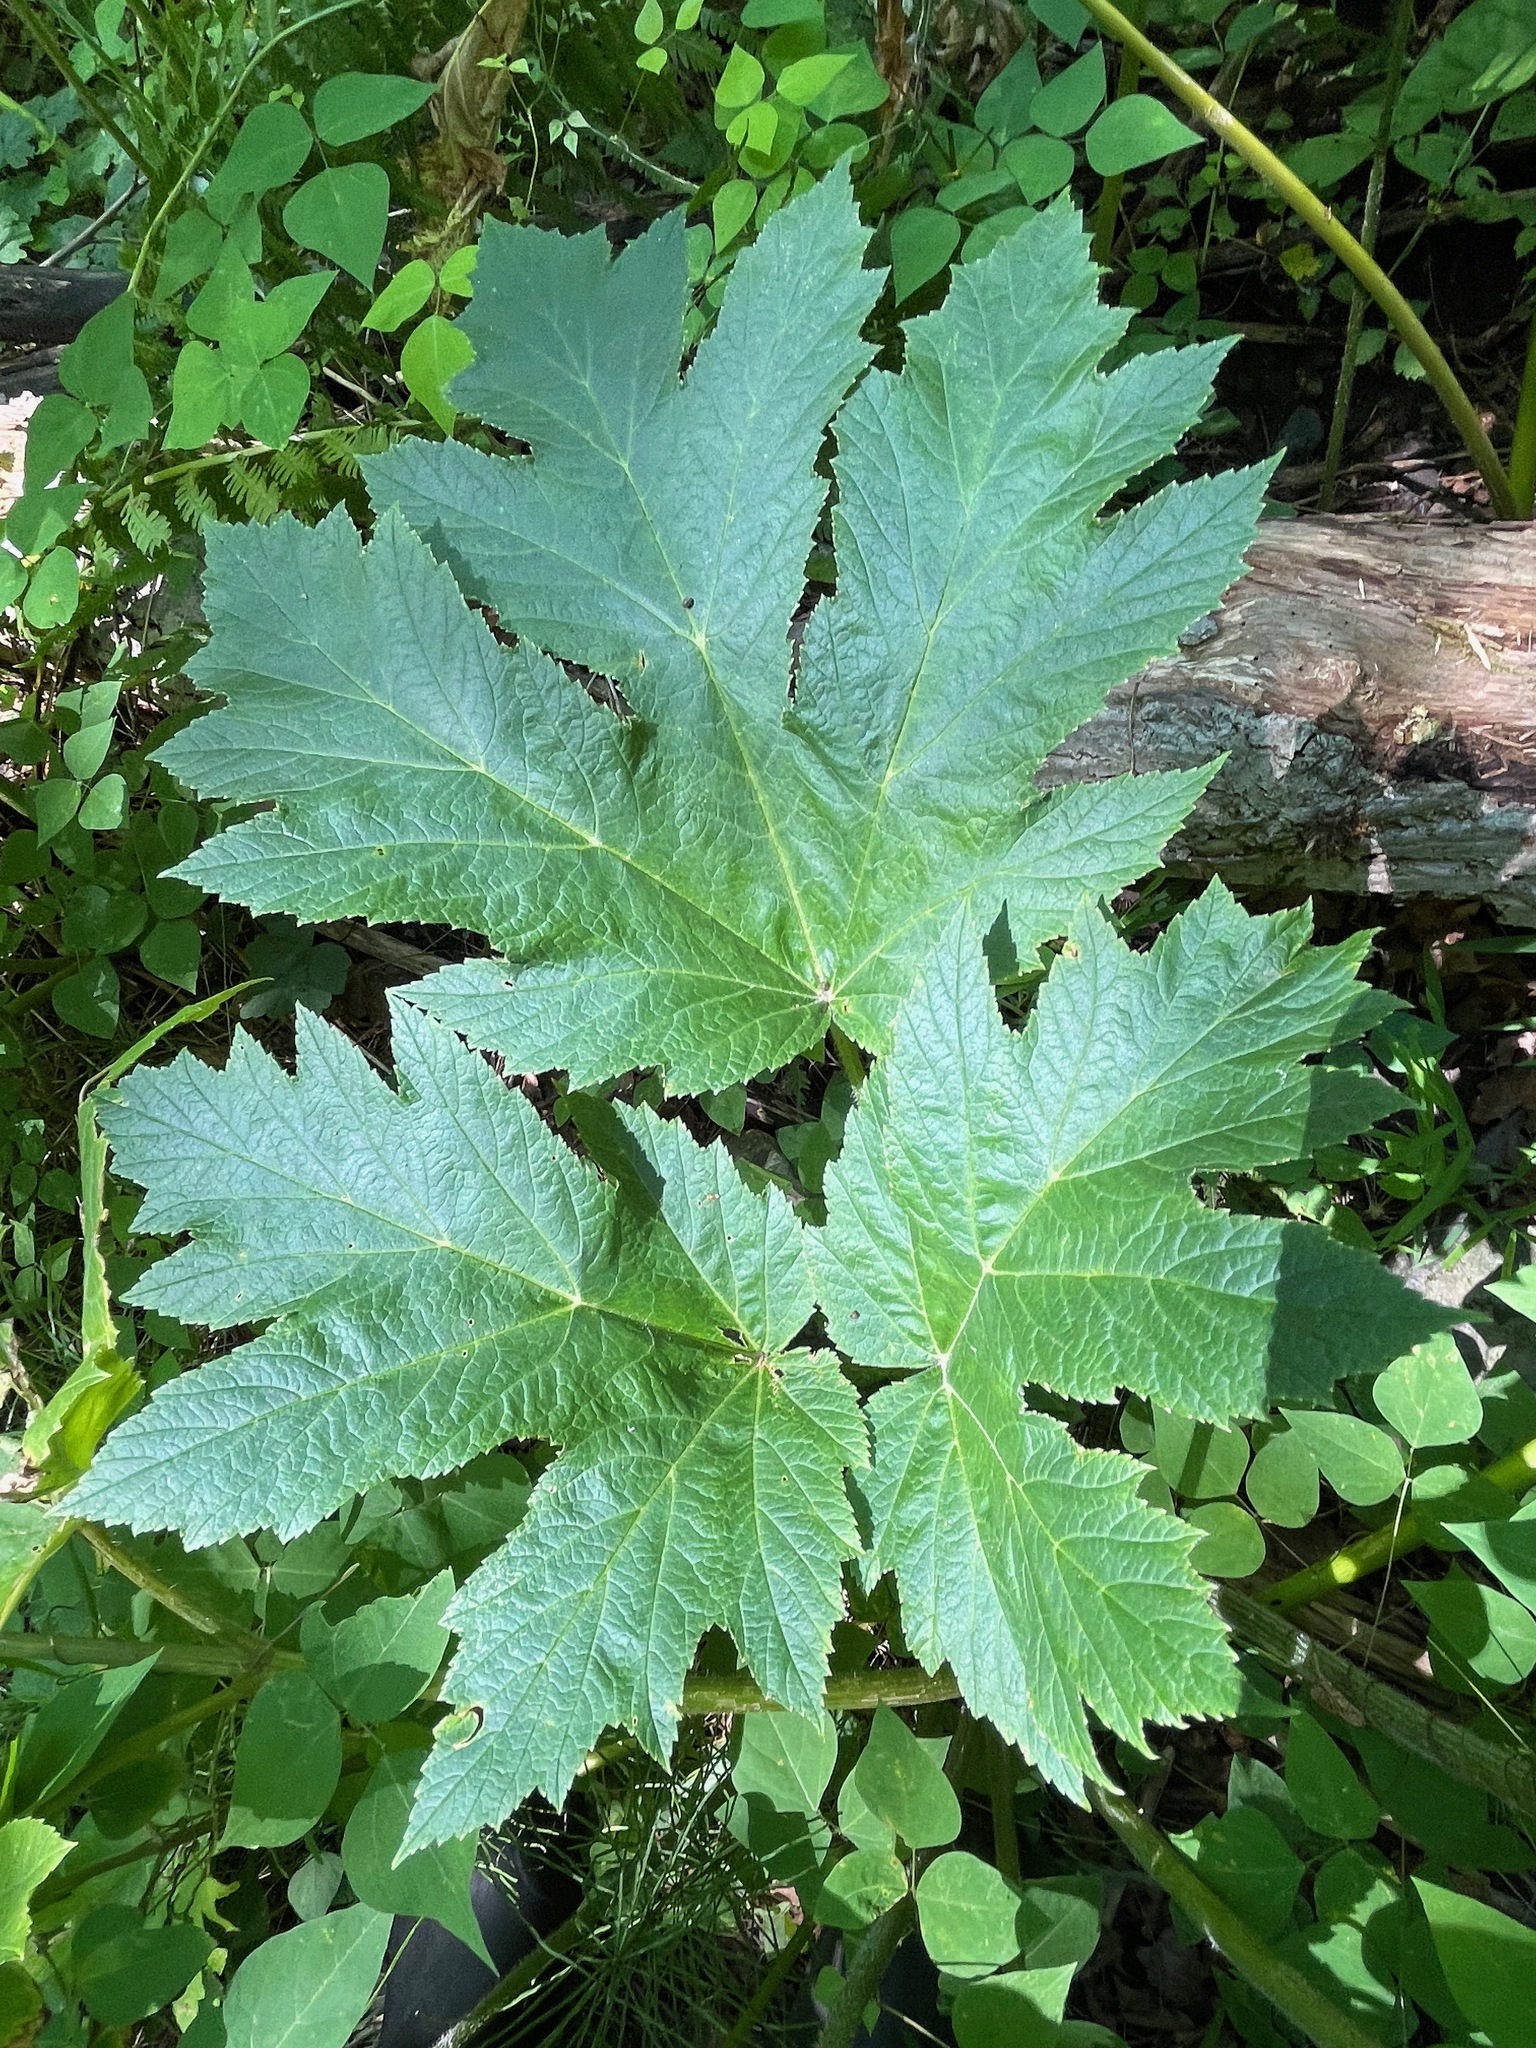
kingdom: Plantae
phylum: Tracheophyta
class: Magnoliopsida
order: Apiales
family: Apiaceae
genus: Heracleum
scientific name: Heracleum maximum
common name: American cow parsnip
